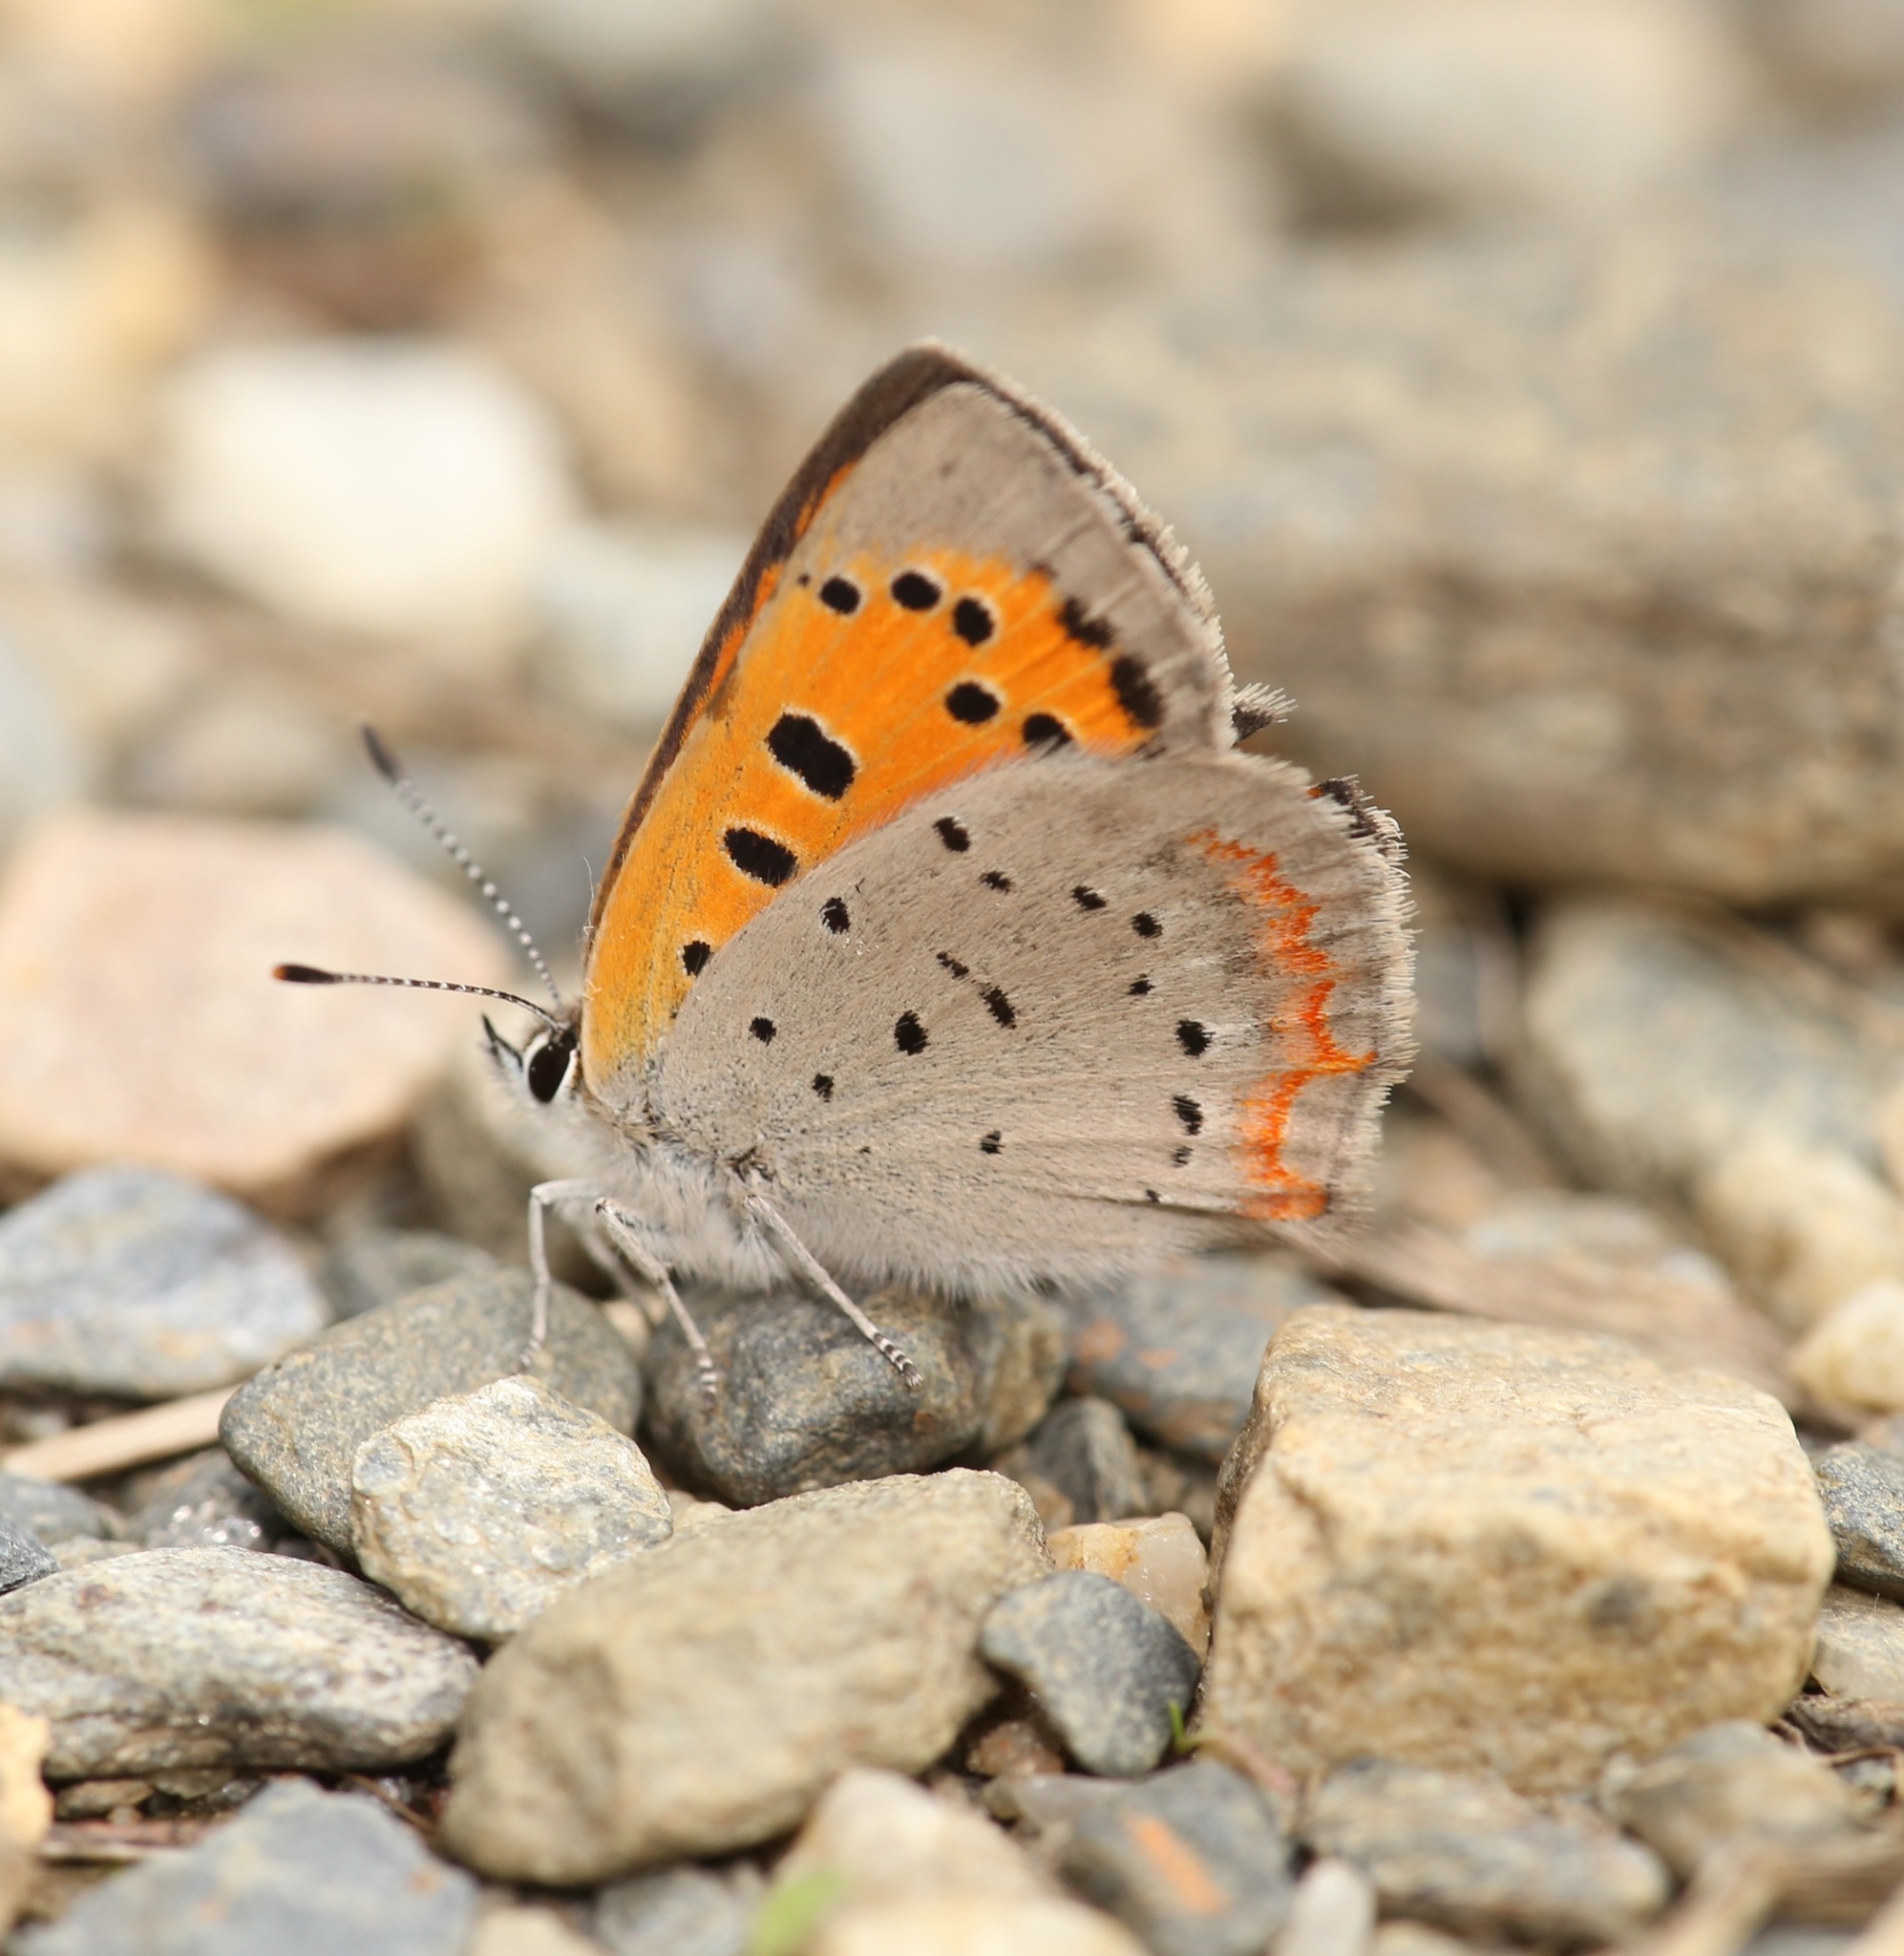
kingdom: Animalia
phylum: Arthropoda
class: Insecta
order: Lepidoptera
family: Lycaenidae
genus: Lycaena
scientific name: Lycaena hypophlaeas
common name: American copper
